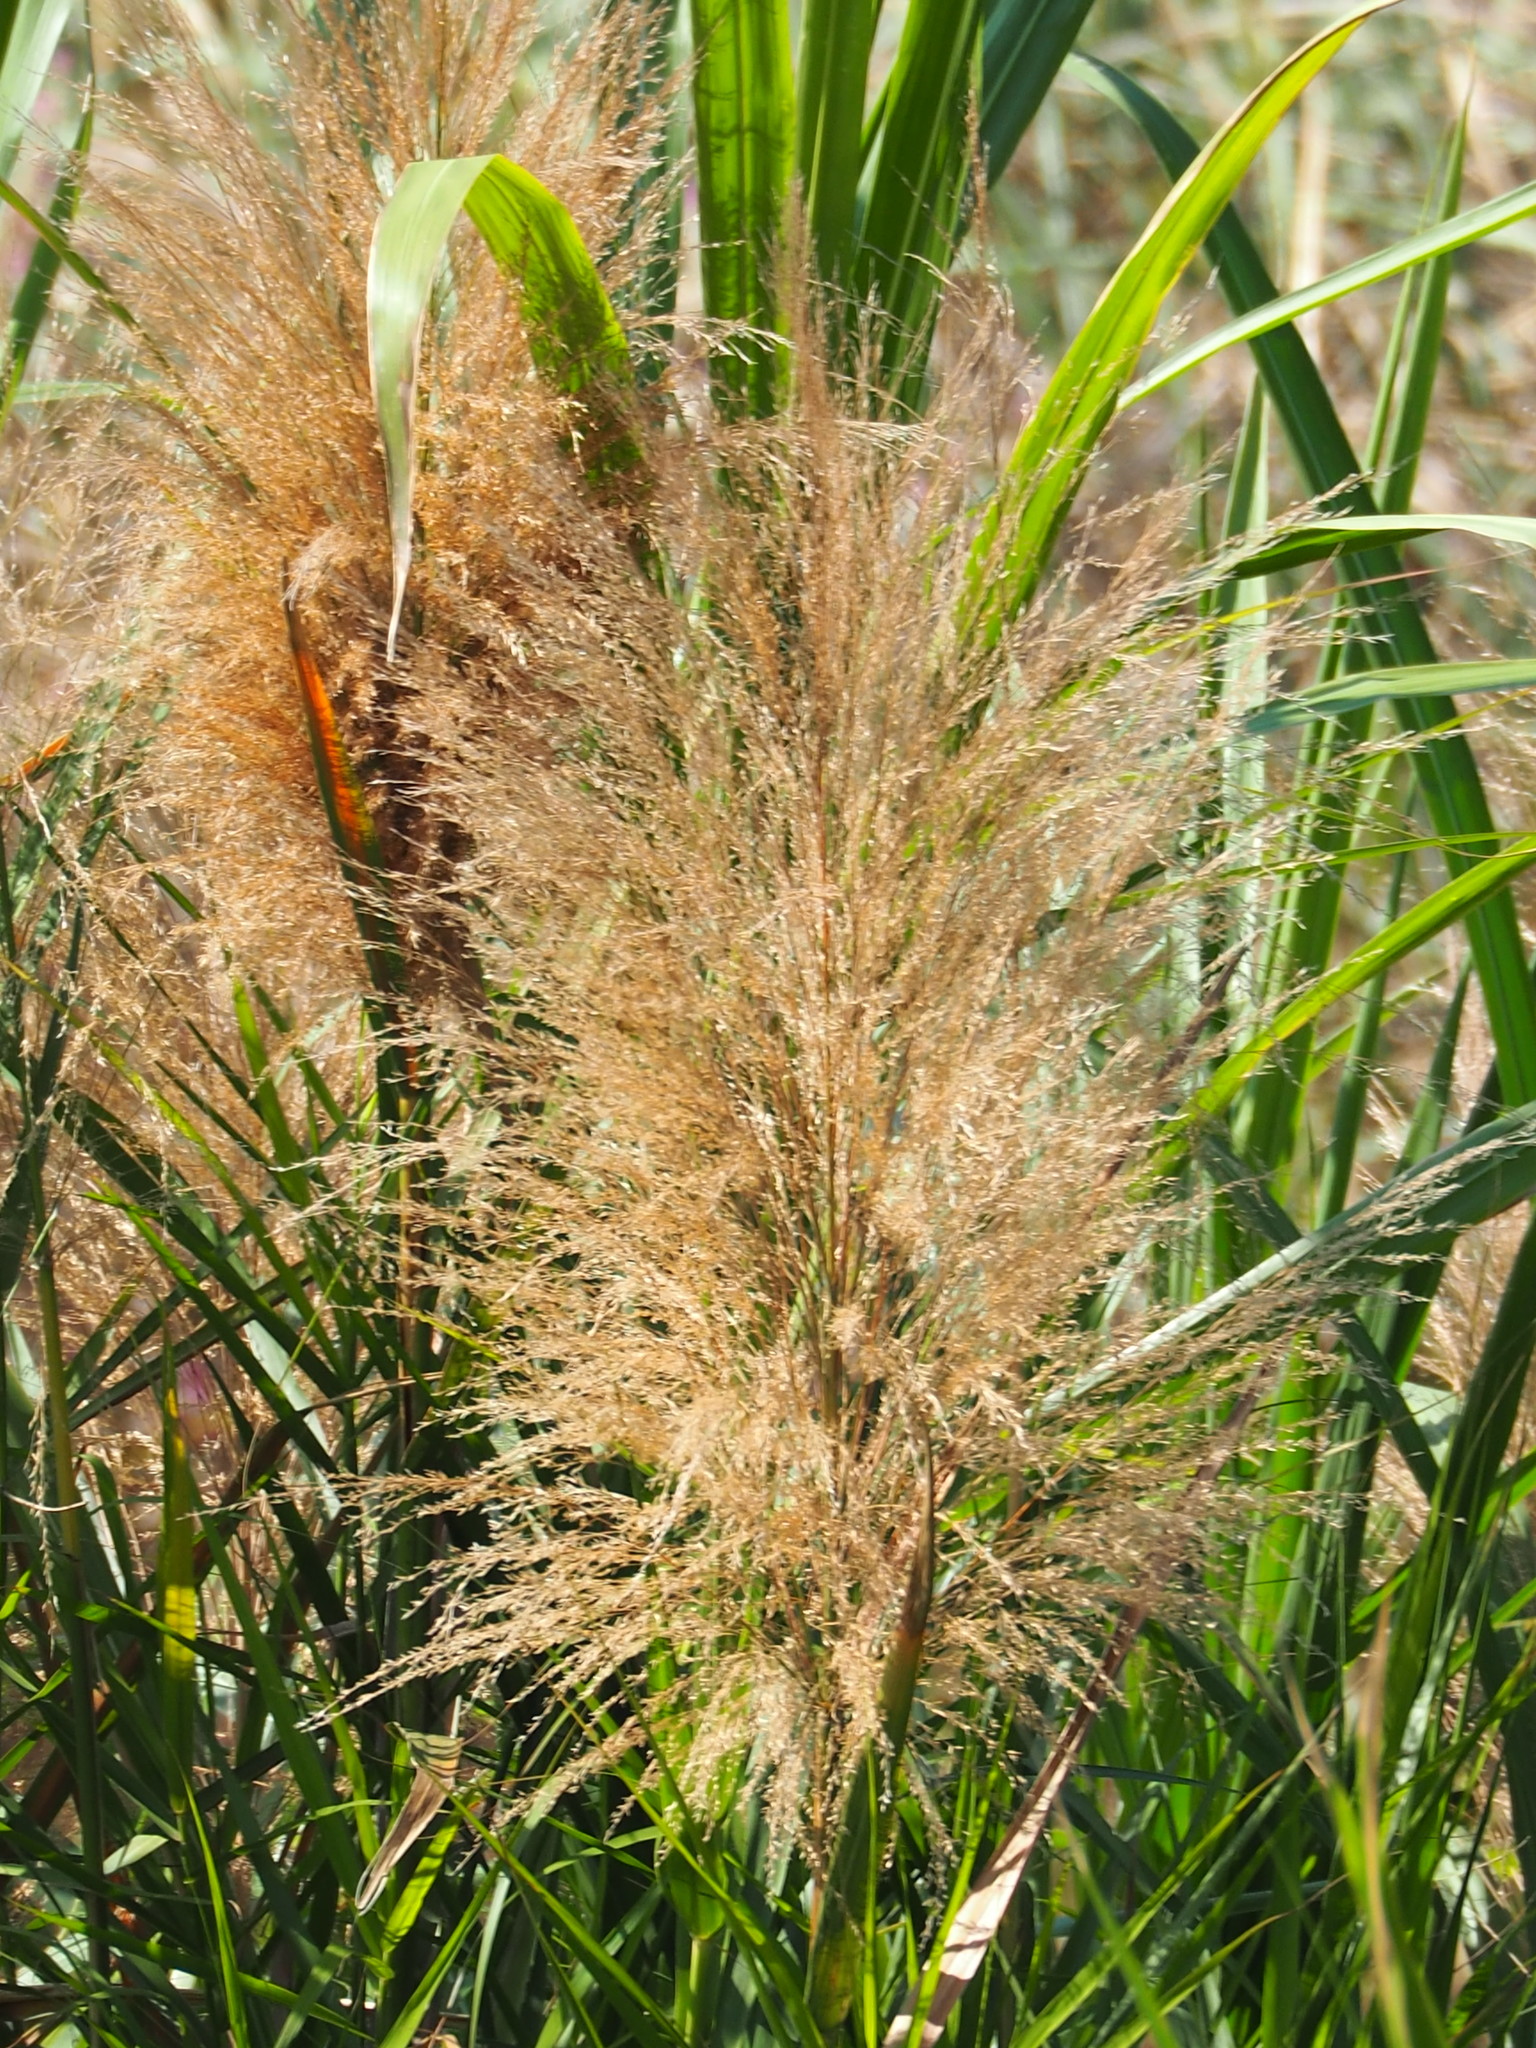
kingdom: Plantae
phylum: Tracheophyta
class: Liliopsida
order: Poales
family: Poaceae
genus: Phragmites
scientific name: Phragmites karka
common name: Tropical reed
